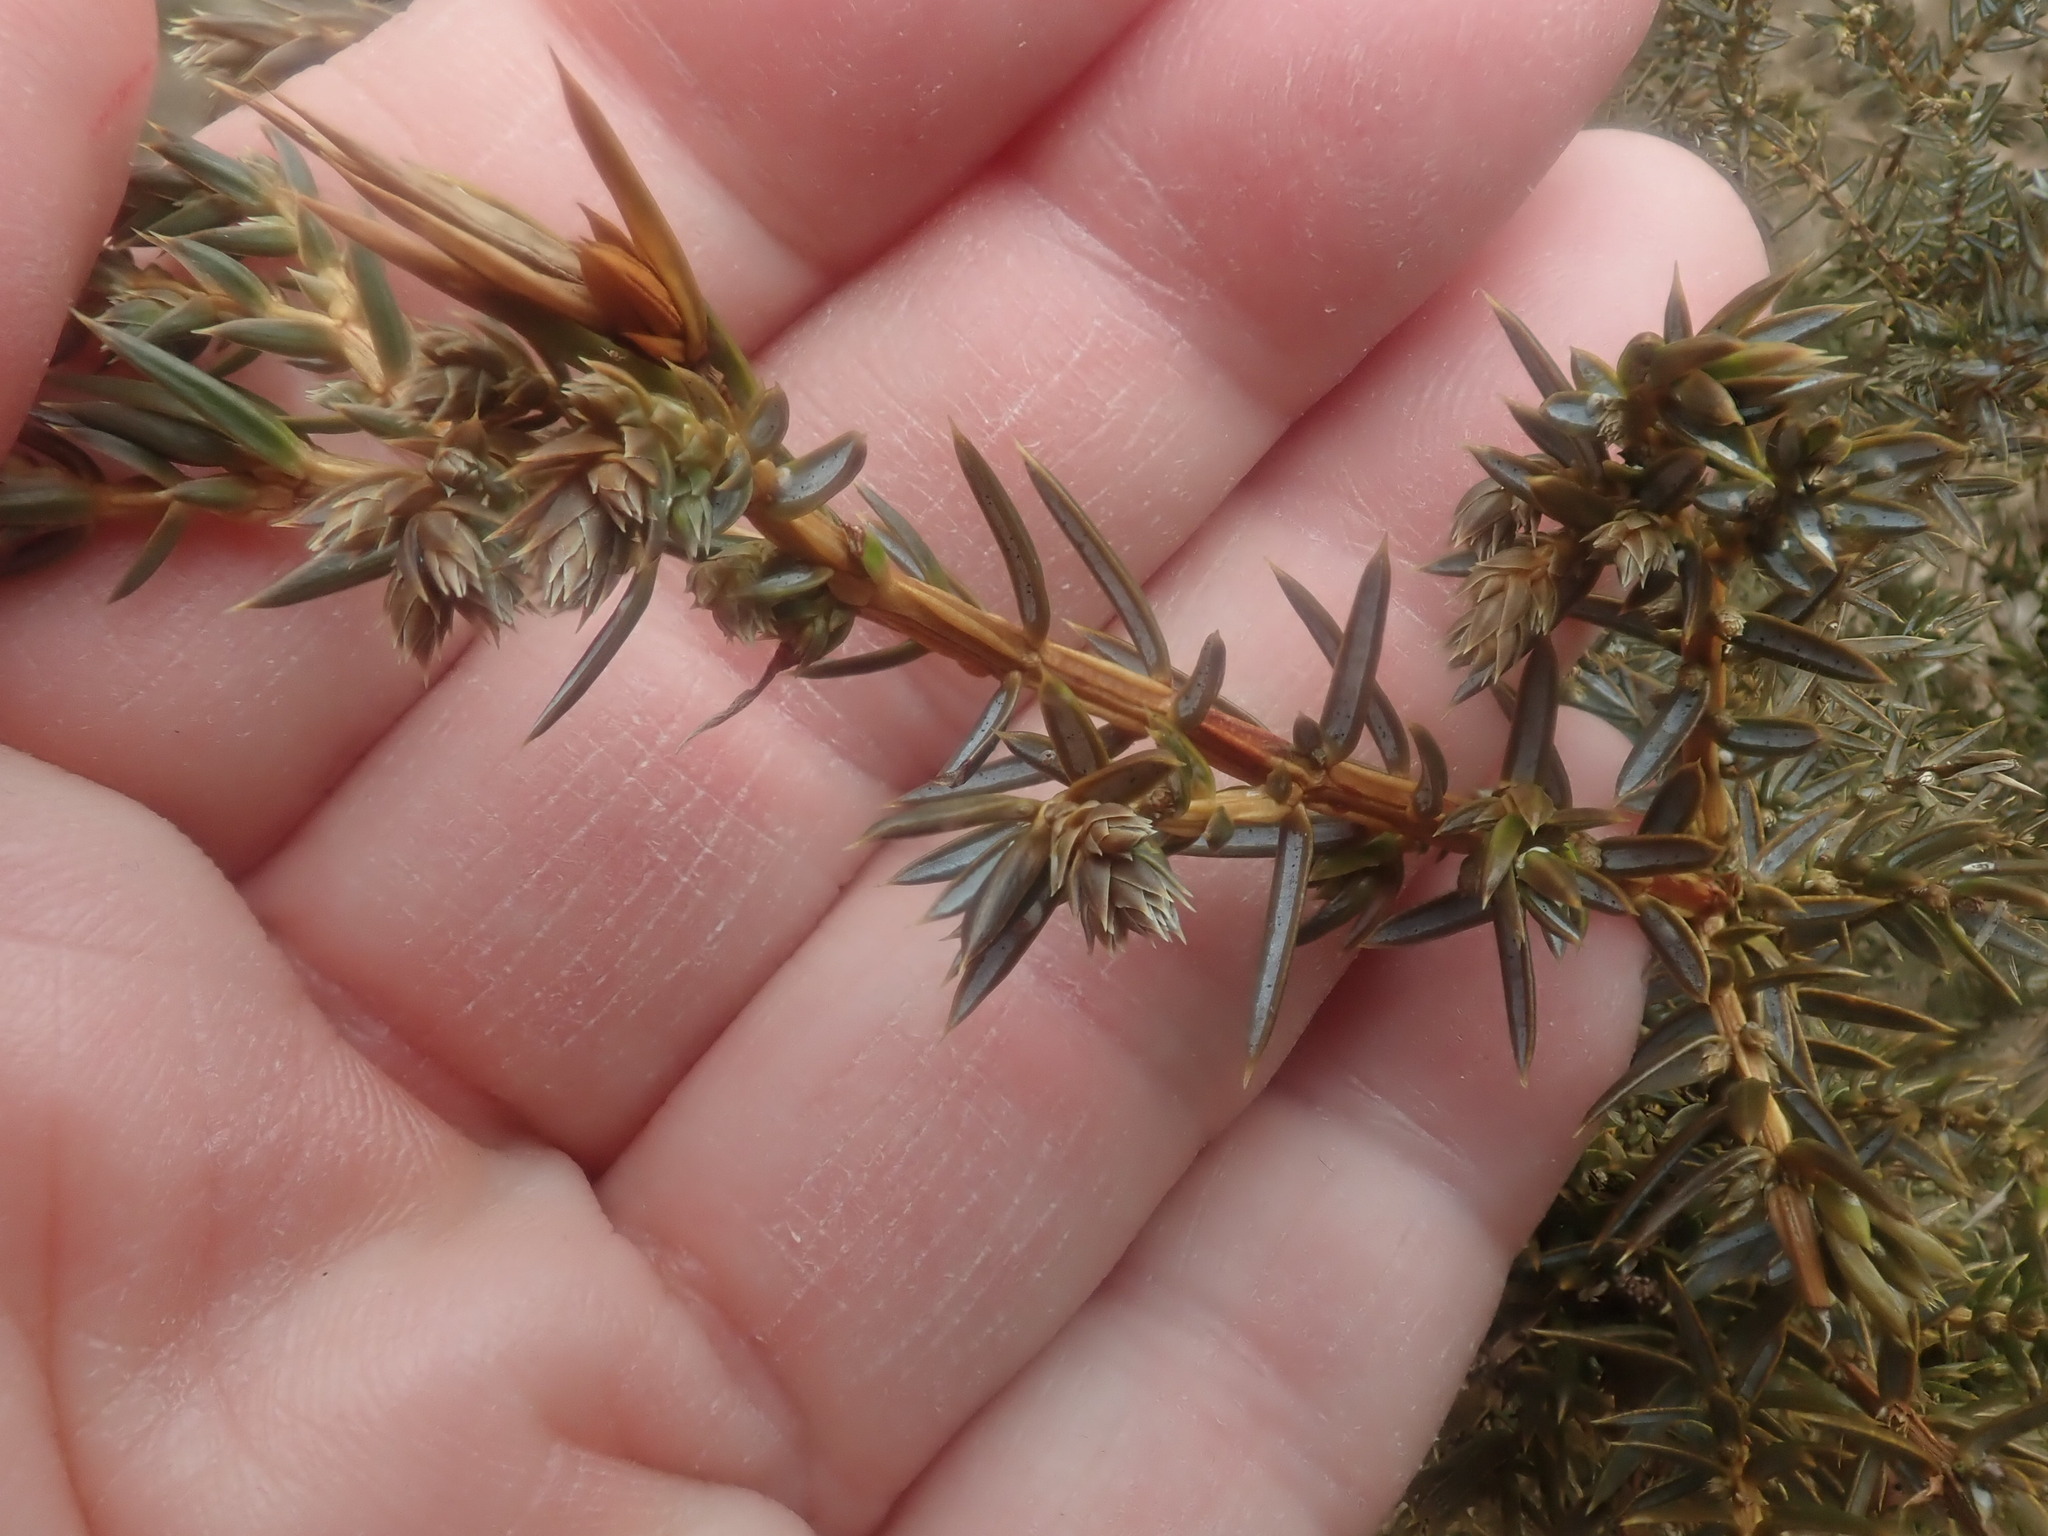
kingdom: Plantae
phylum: Tracheophyta
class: Pinopsida
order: Pinales
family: Cupressaceae
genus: Juniperus
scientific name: Juniperus communis
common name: Common juniper
